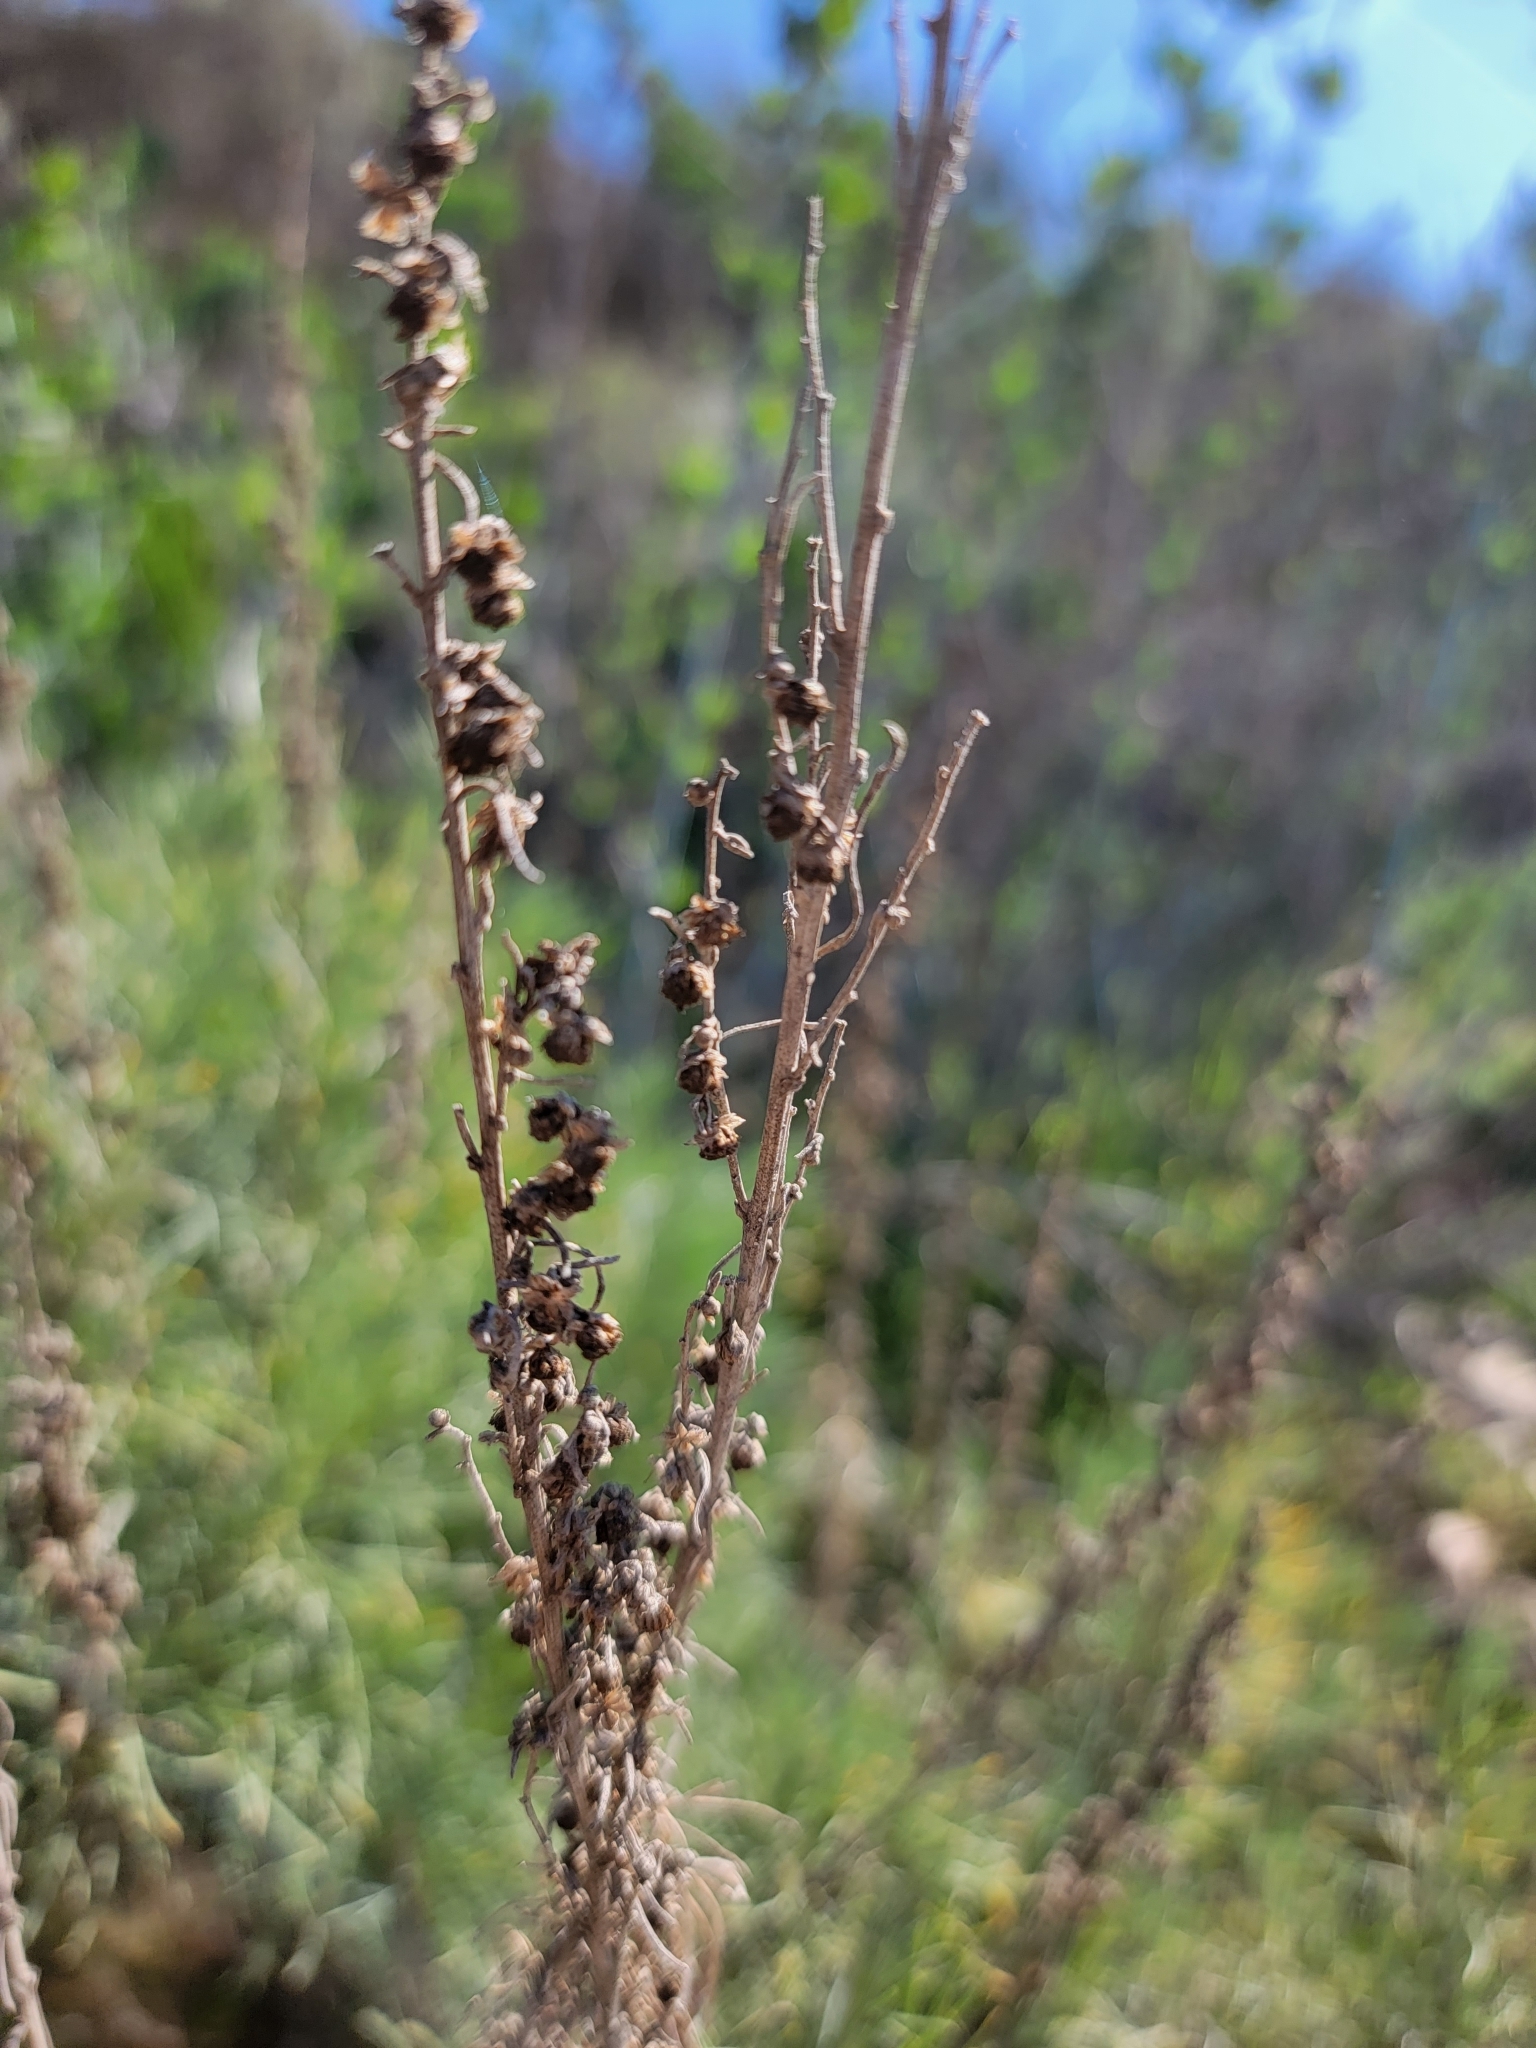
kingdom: Plantae
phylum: Tracheophyta
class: Magnoliopsida
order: Asterales
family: Asteraceae
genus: Artemisia
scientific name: Artemisia californica
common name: California sagebrush
